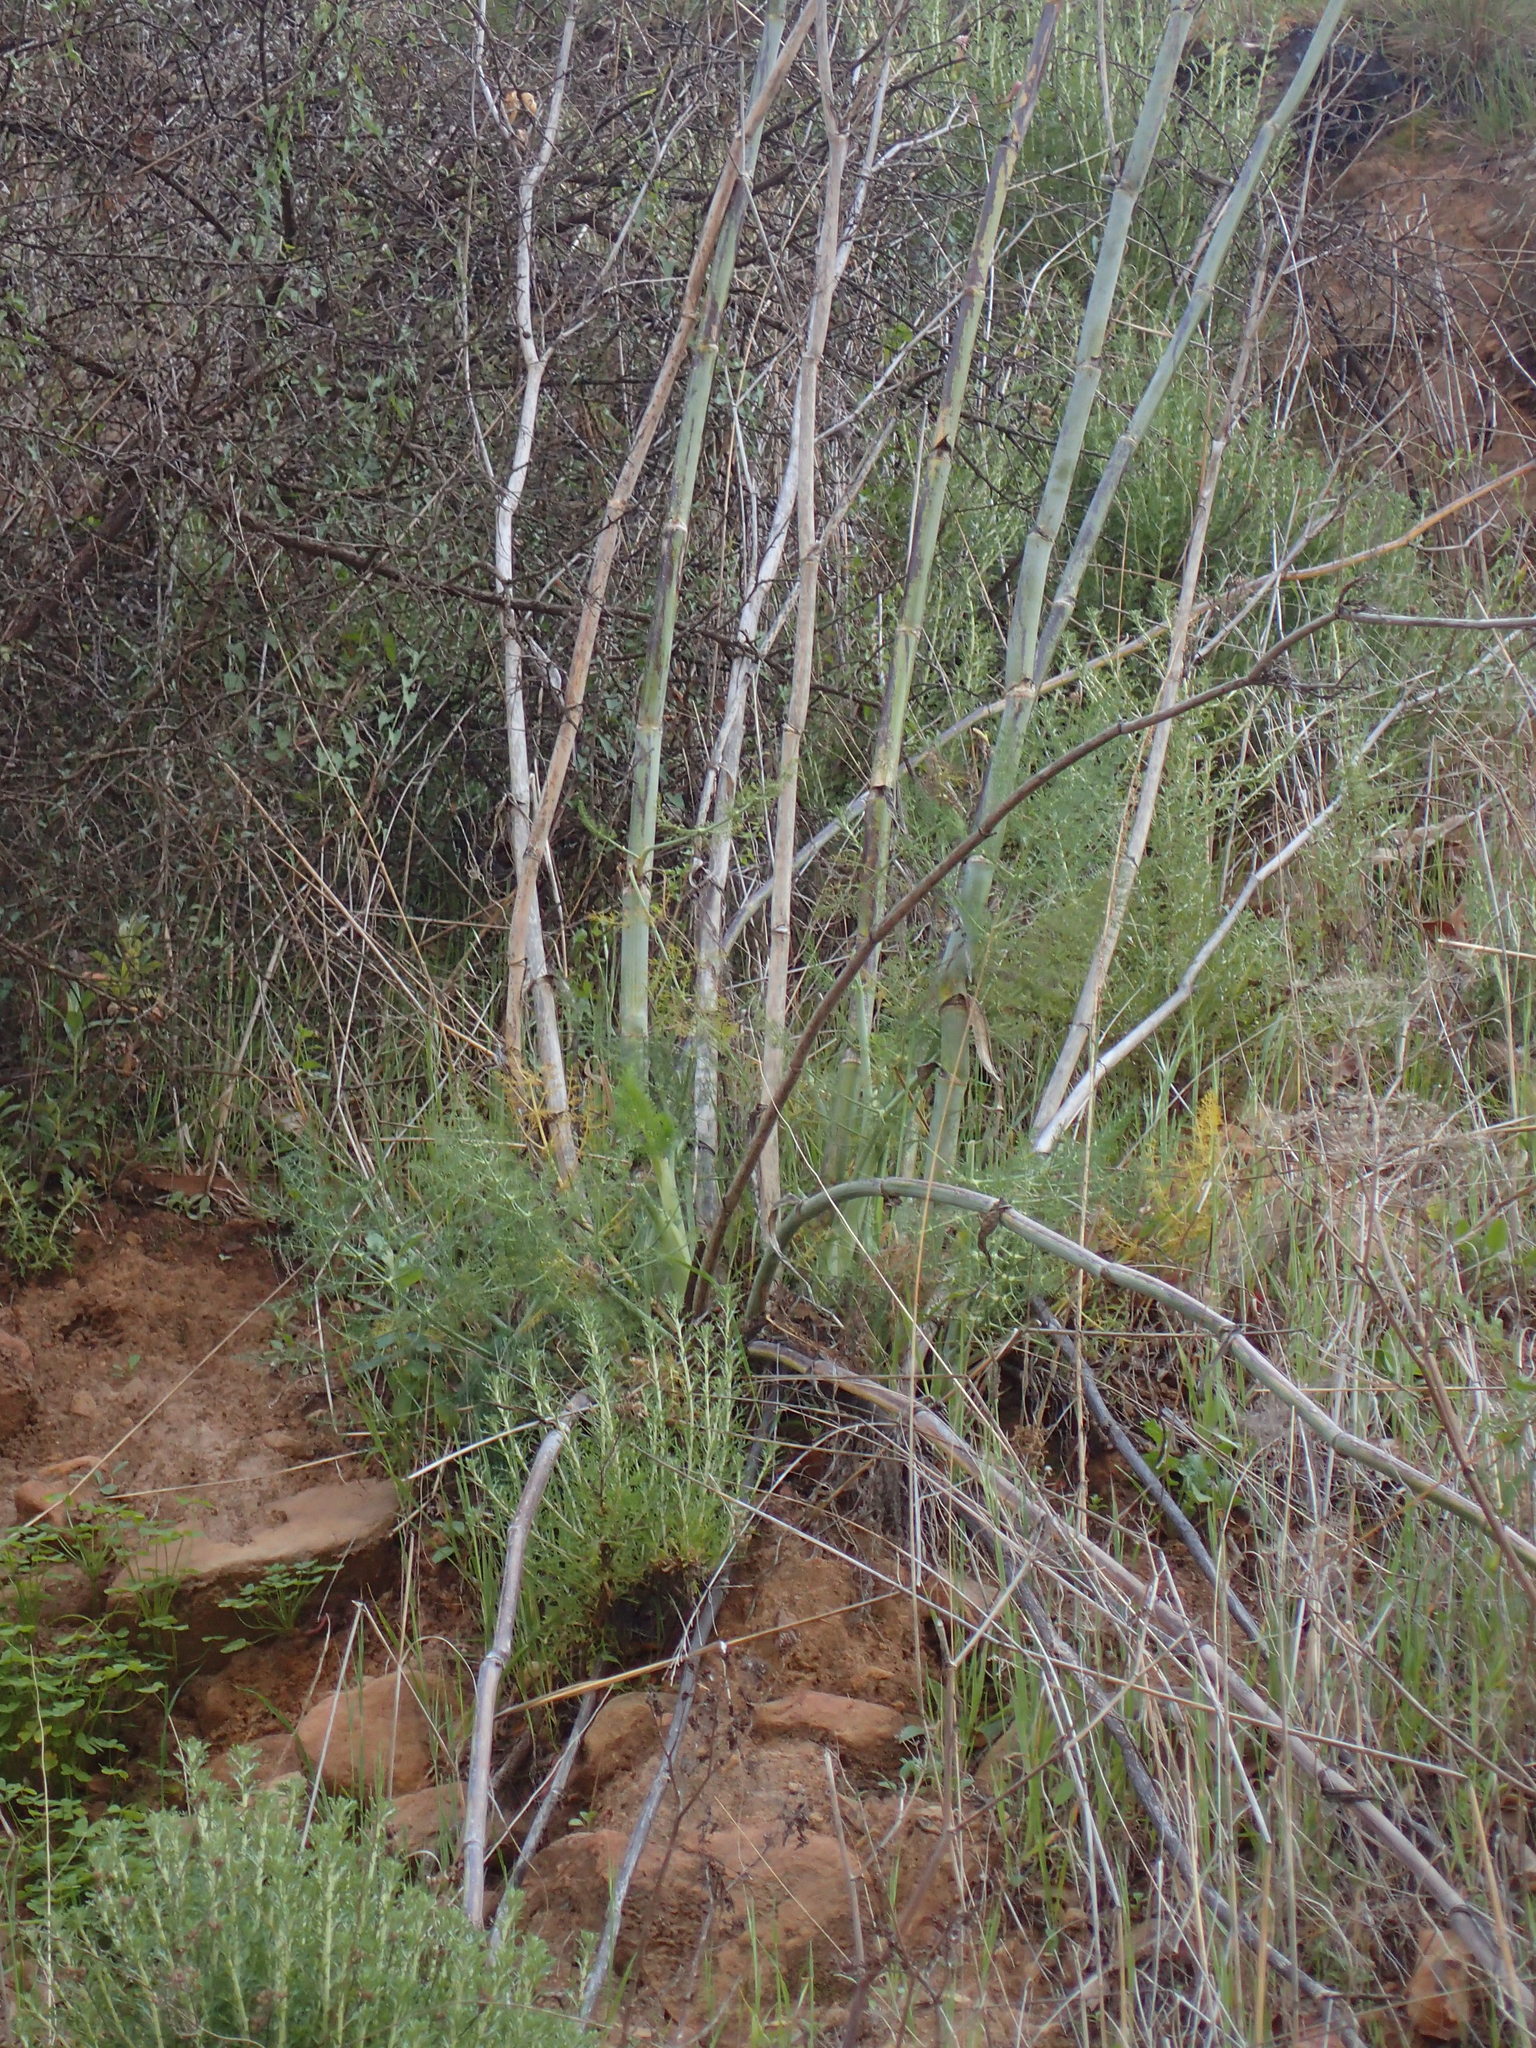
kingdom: Plantae
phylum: Tracheophyta
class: Magnoliopsida
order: Apiales
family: Apiaceae
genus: Foeniculum
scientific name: Foeniculum vulgare
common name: Fennel
